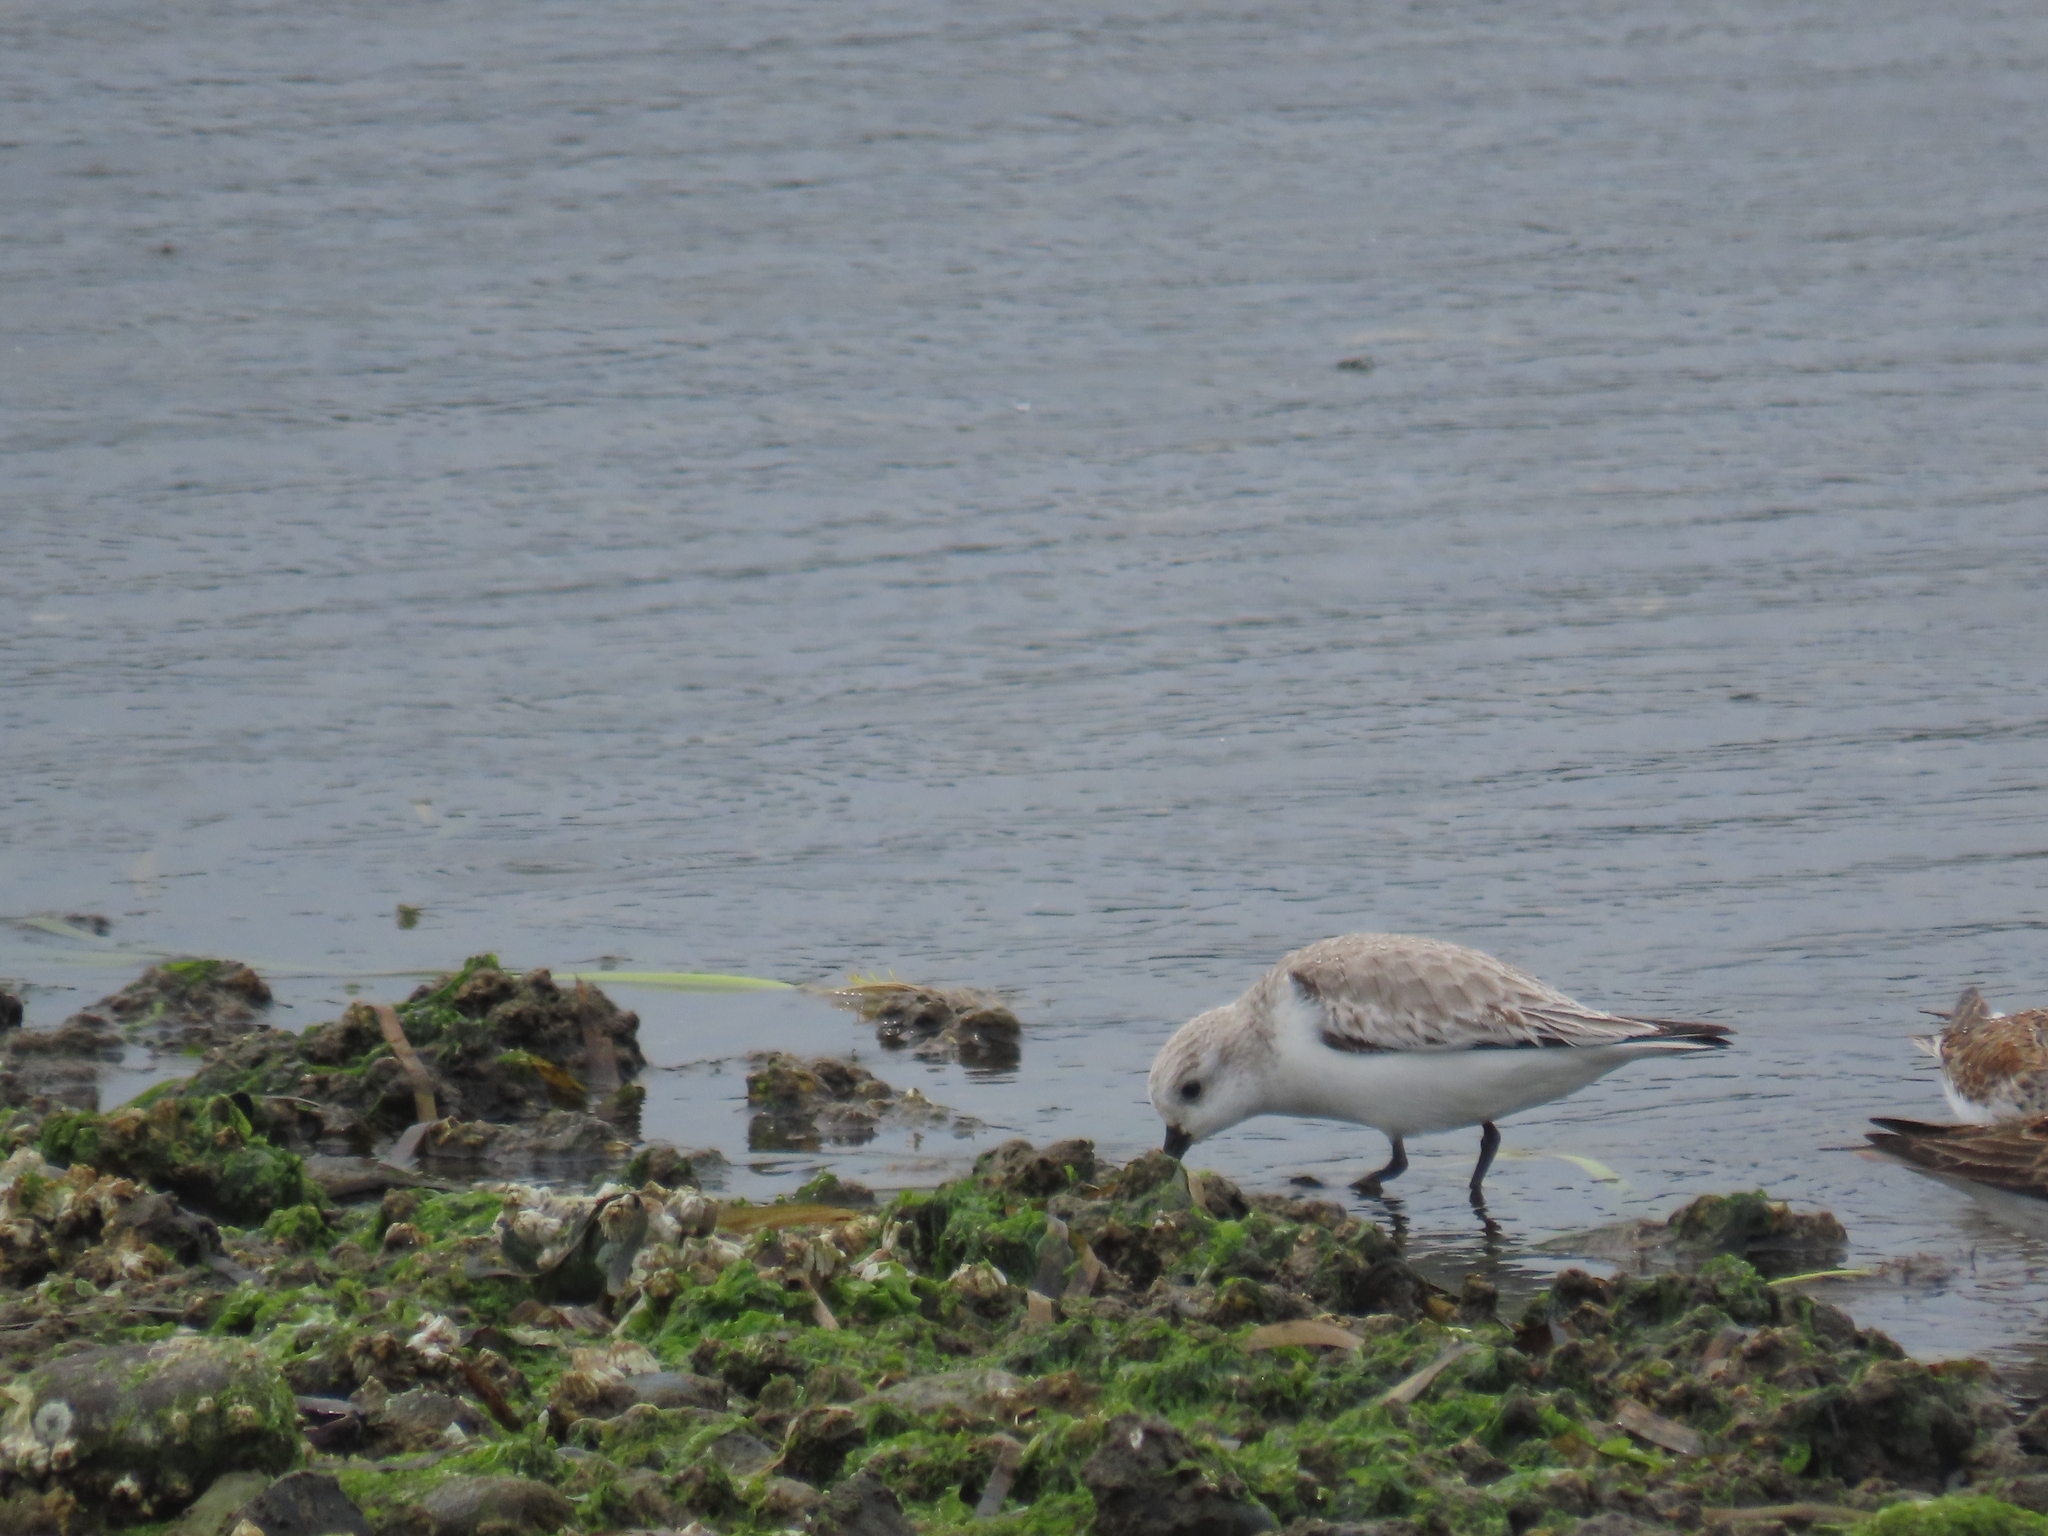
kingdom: Animalia
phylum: Chordata
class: Aves
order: Charadriiformes
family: Scolopacidae
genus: Calidris
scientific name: Calidris alba
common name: Sanderling
